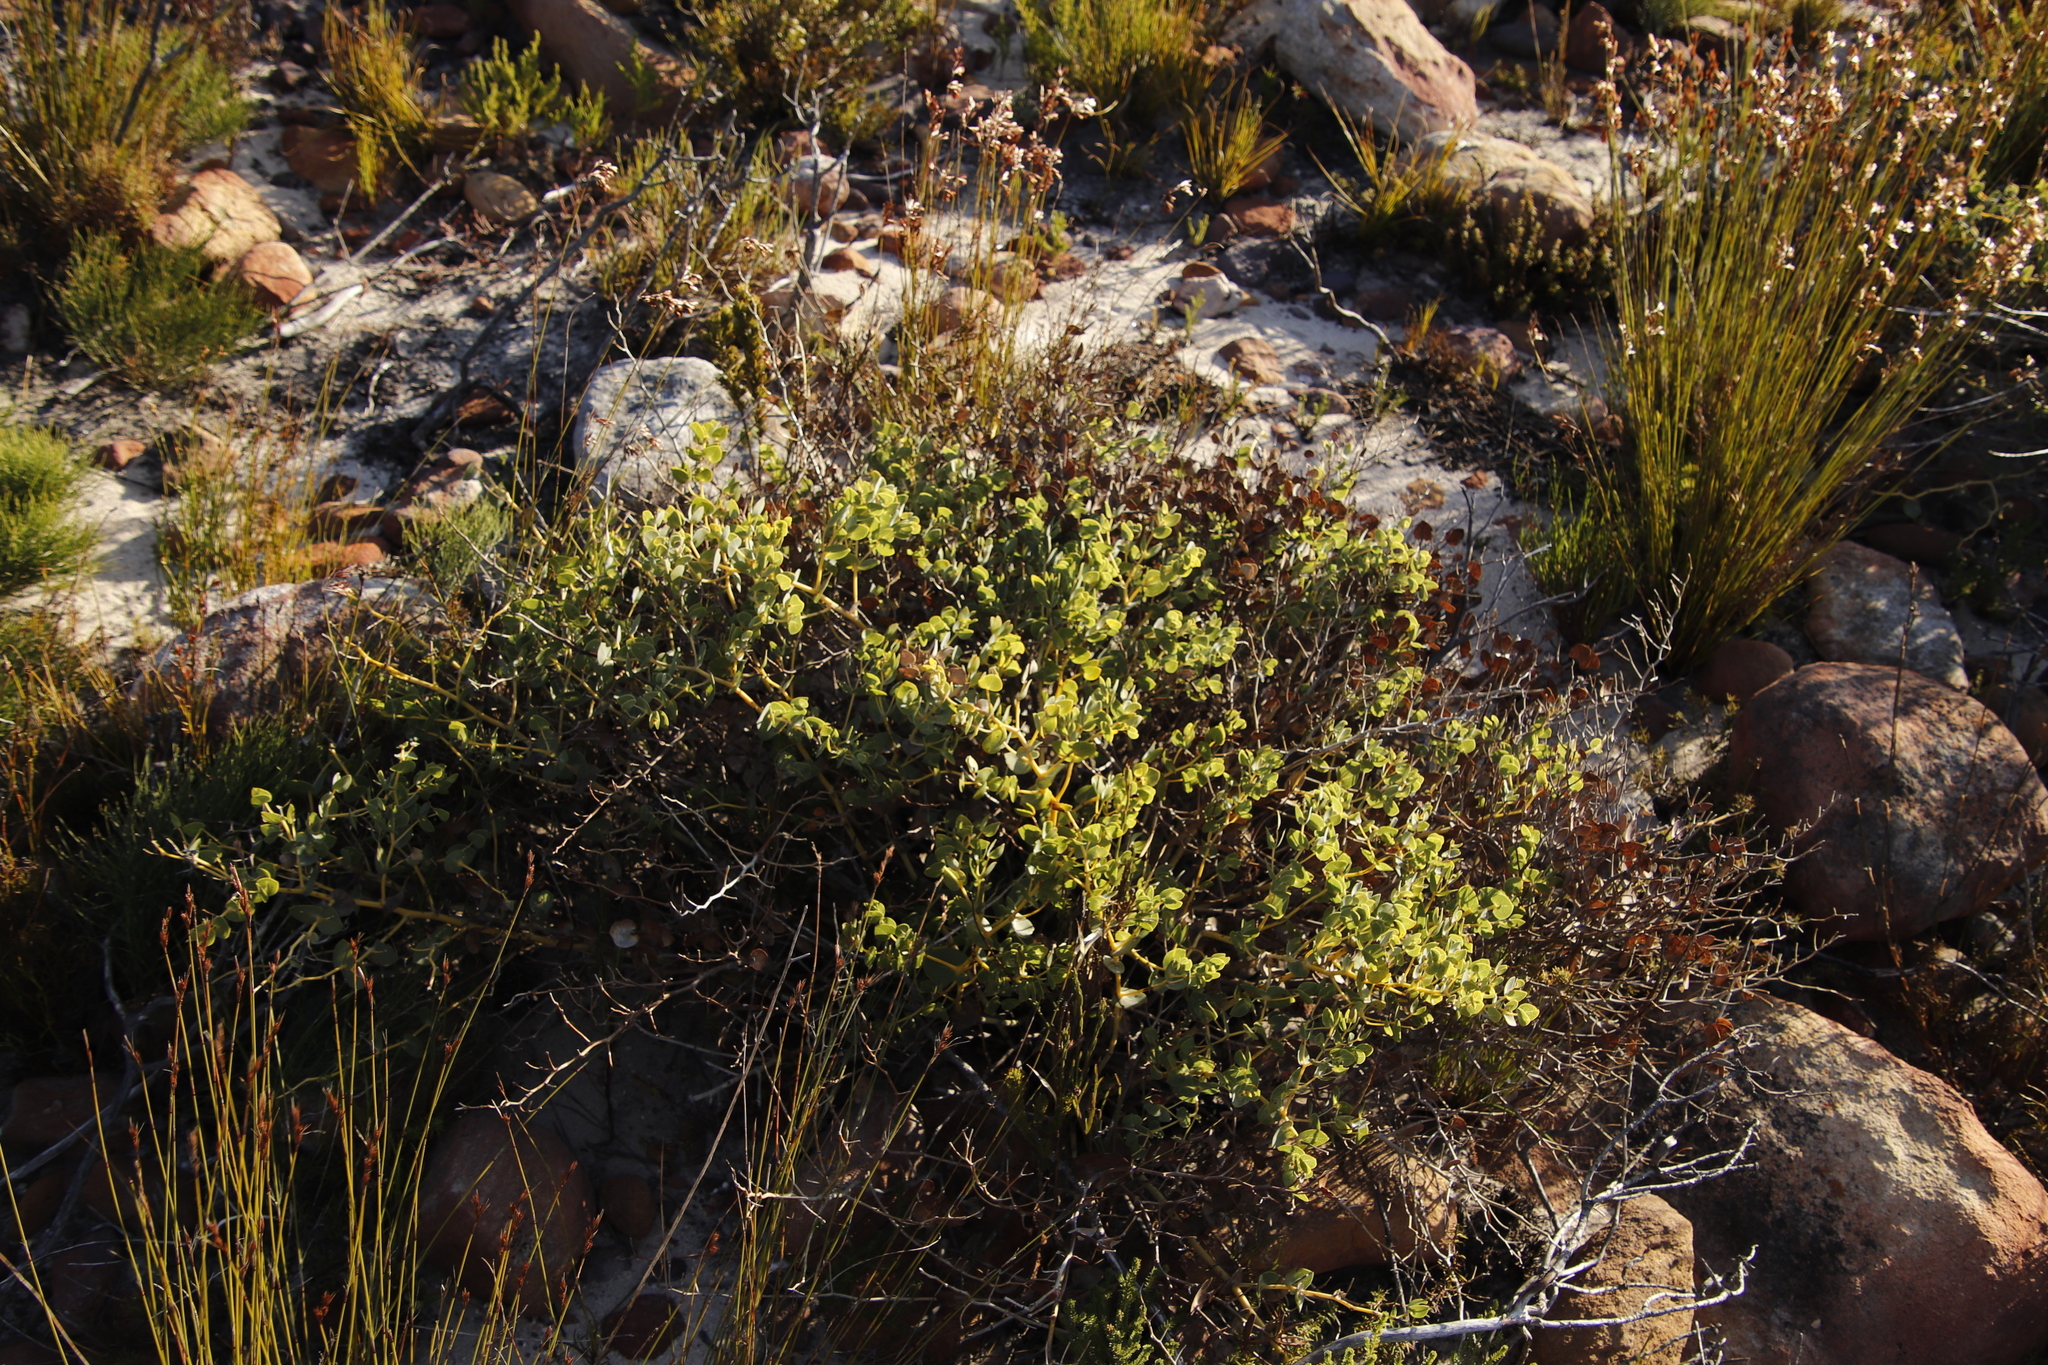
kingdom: Plantae
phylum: Tracheophyta
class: Magnoliopsida
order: Fabales
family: Fabaceae
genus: Rafnia
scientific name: Rafnia capensis
